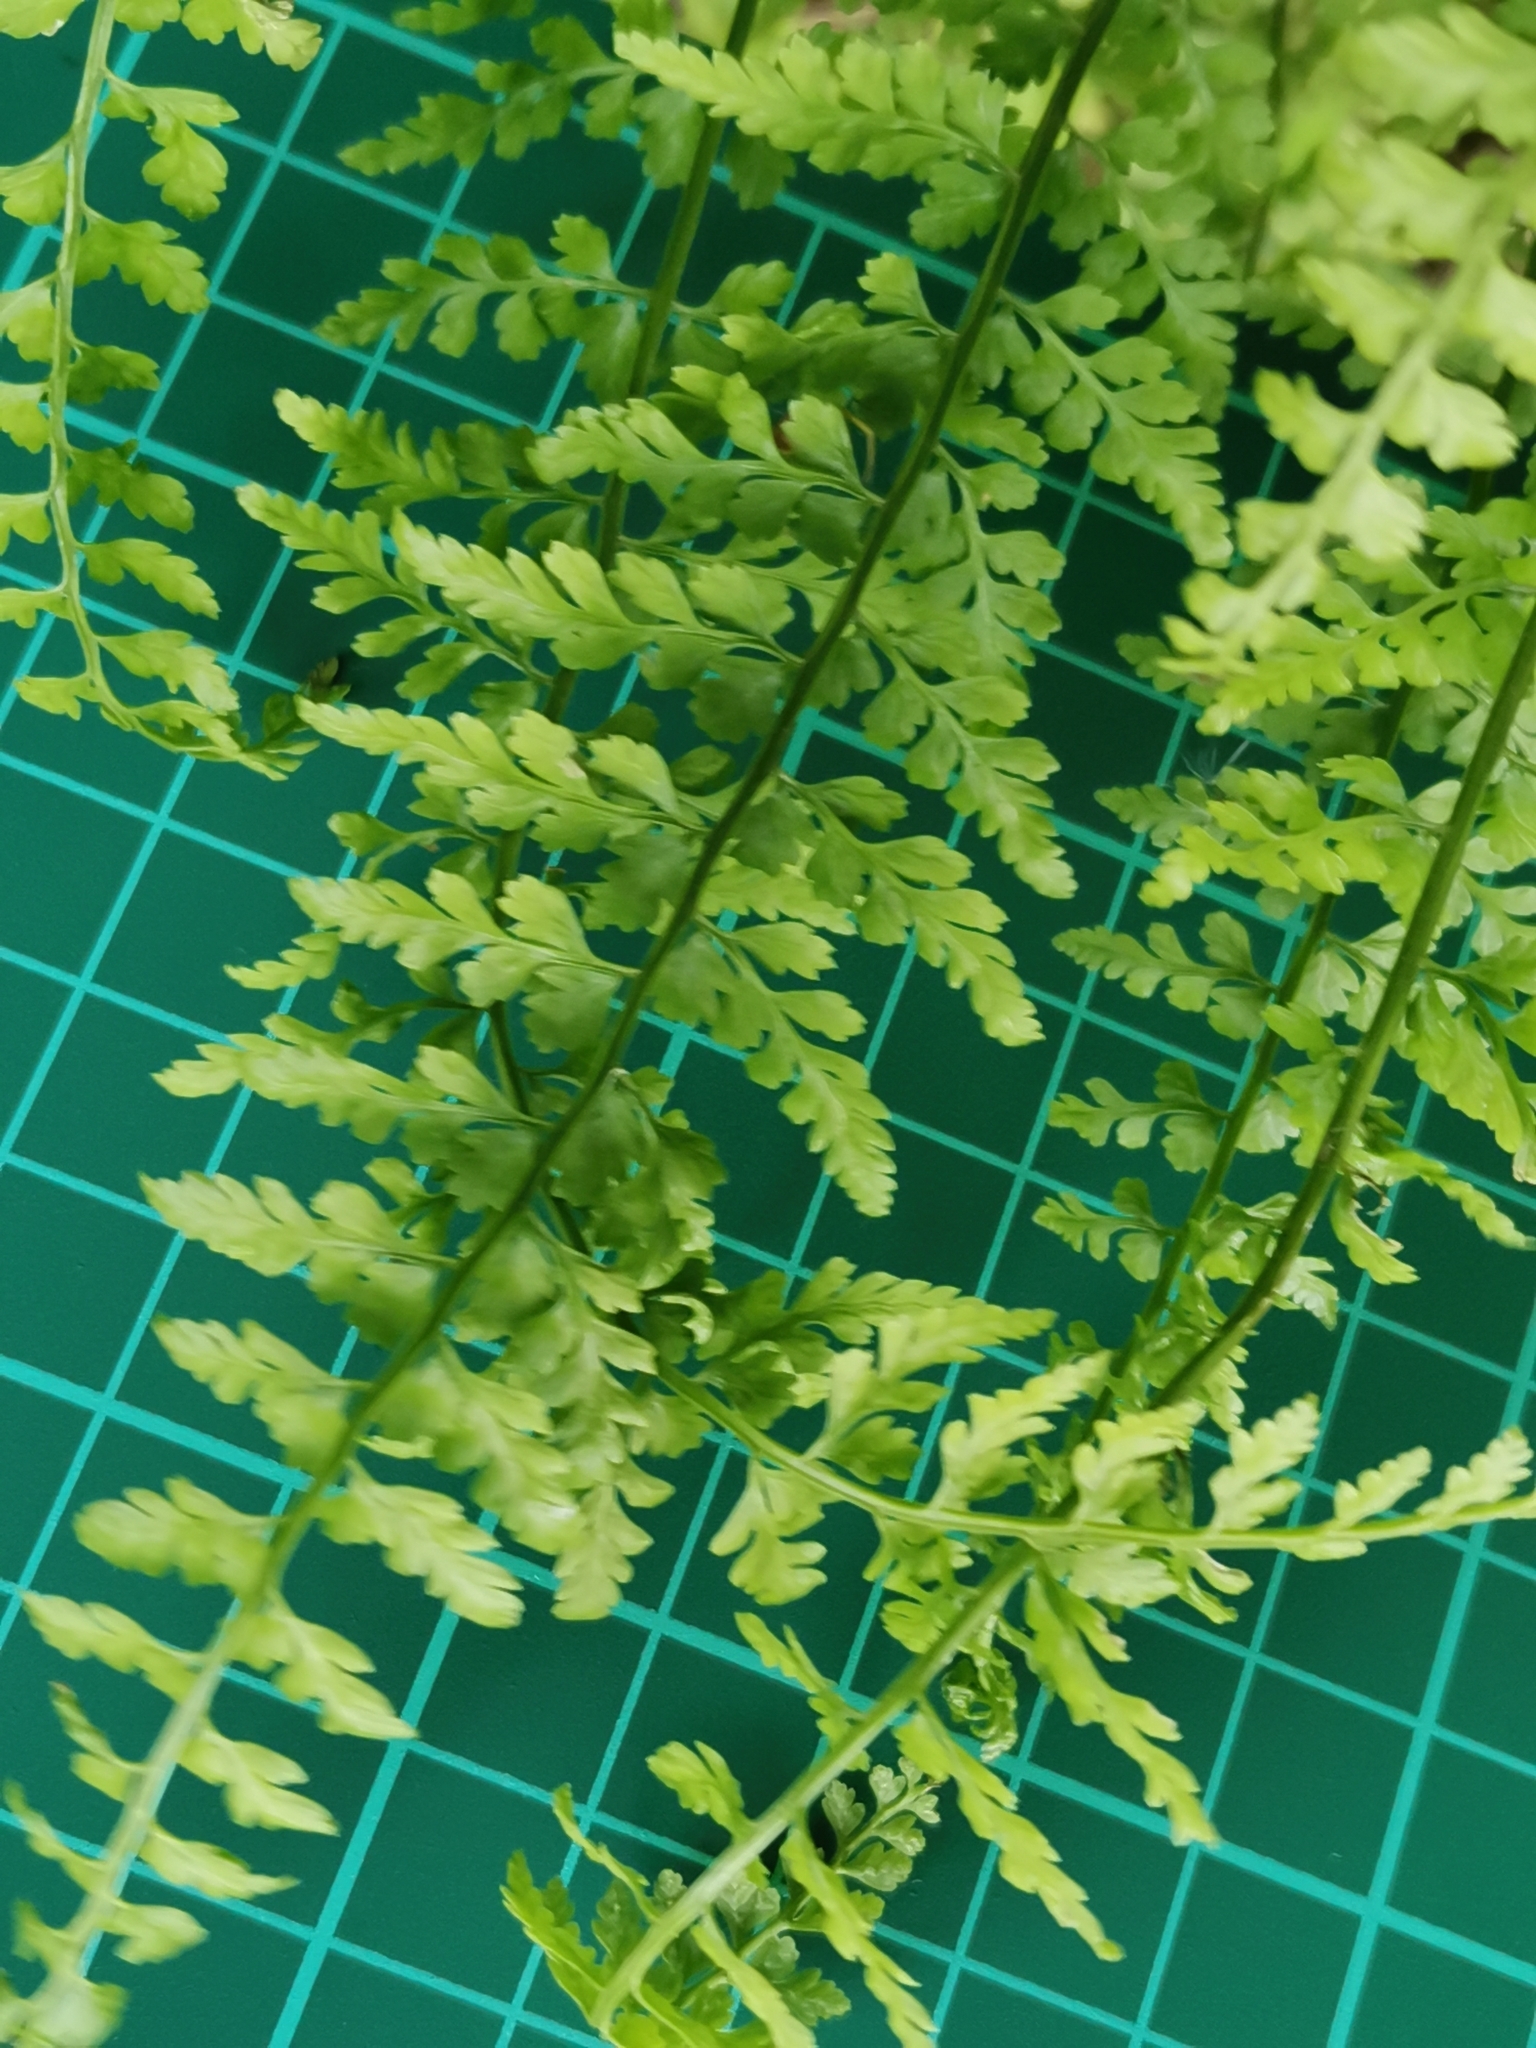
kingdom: Plantae
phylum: Tracheophyta
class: Polypodiopsida
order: Polypodiales
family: Aspleniaceae
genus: Asplenium
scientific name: Asplenium incisum
